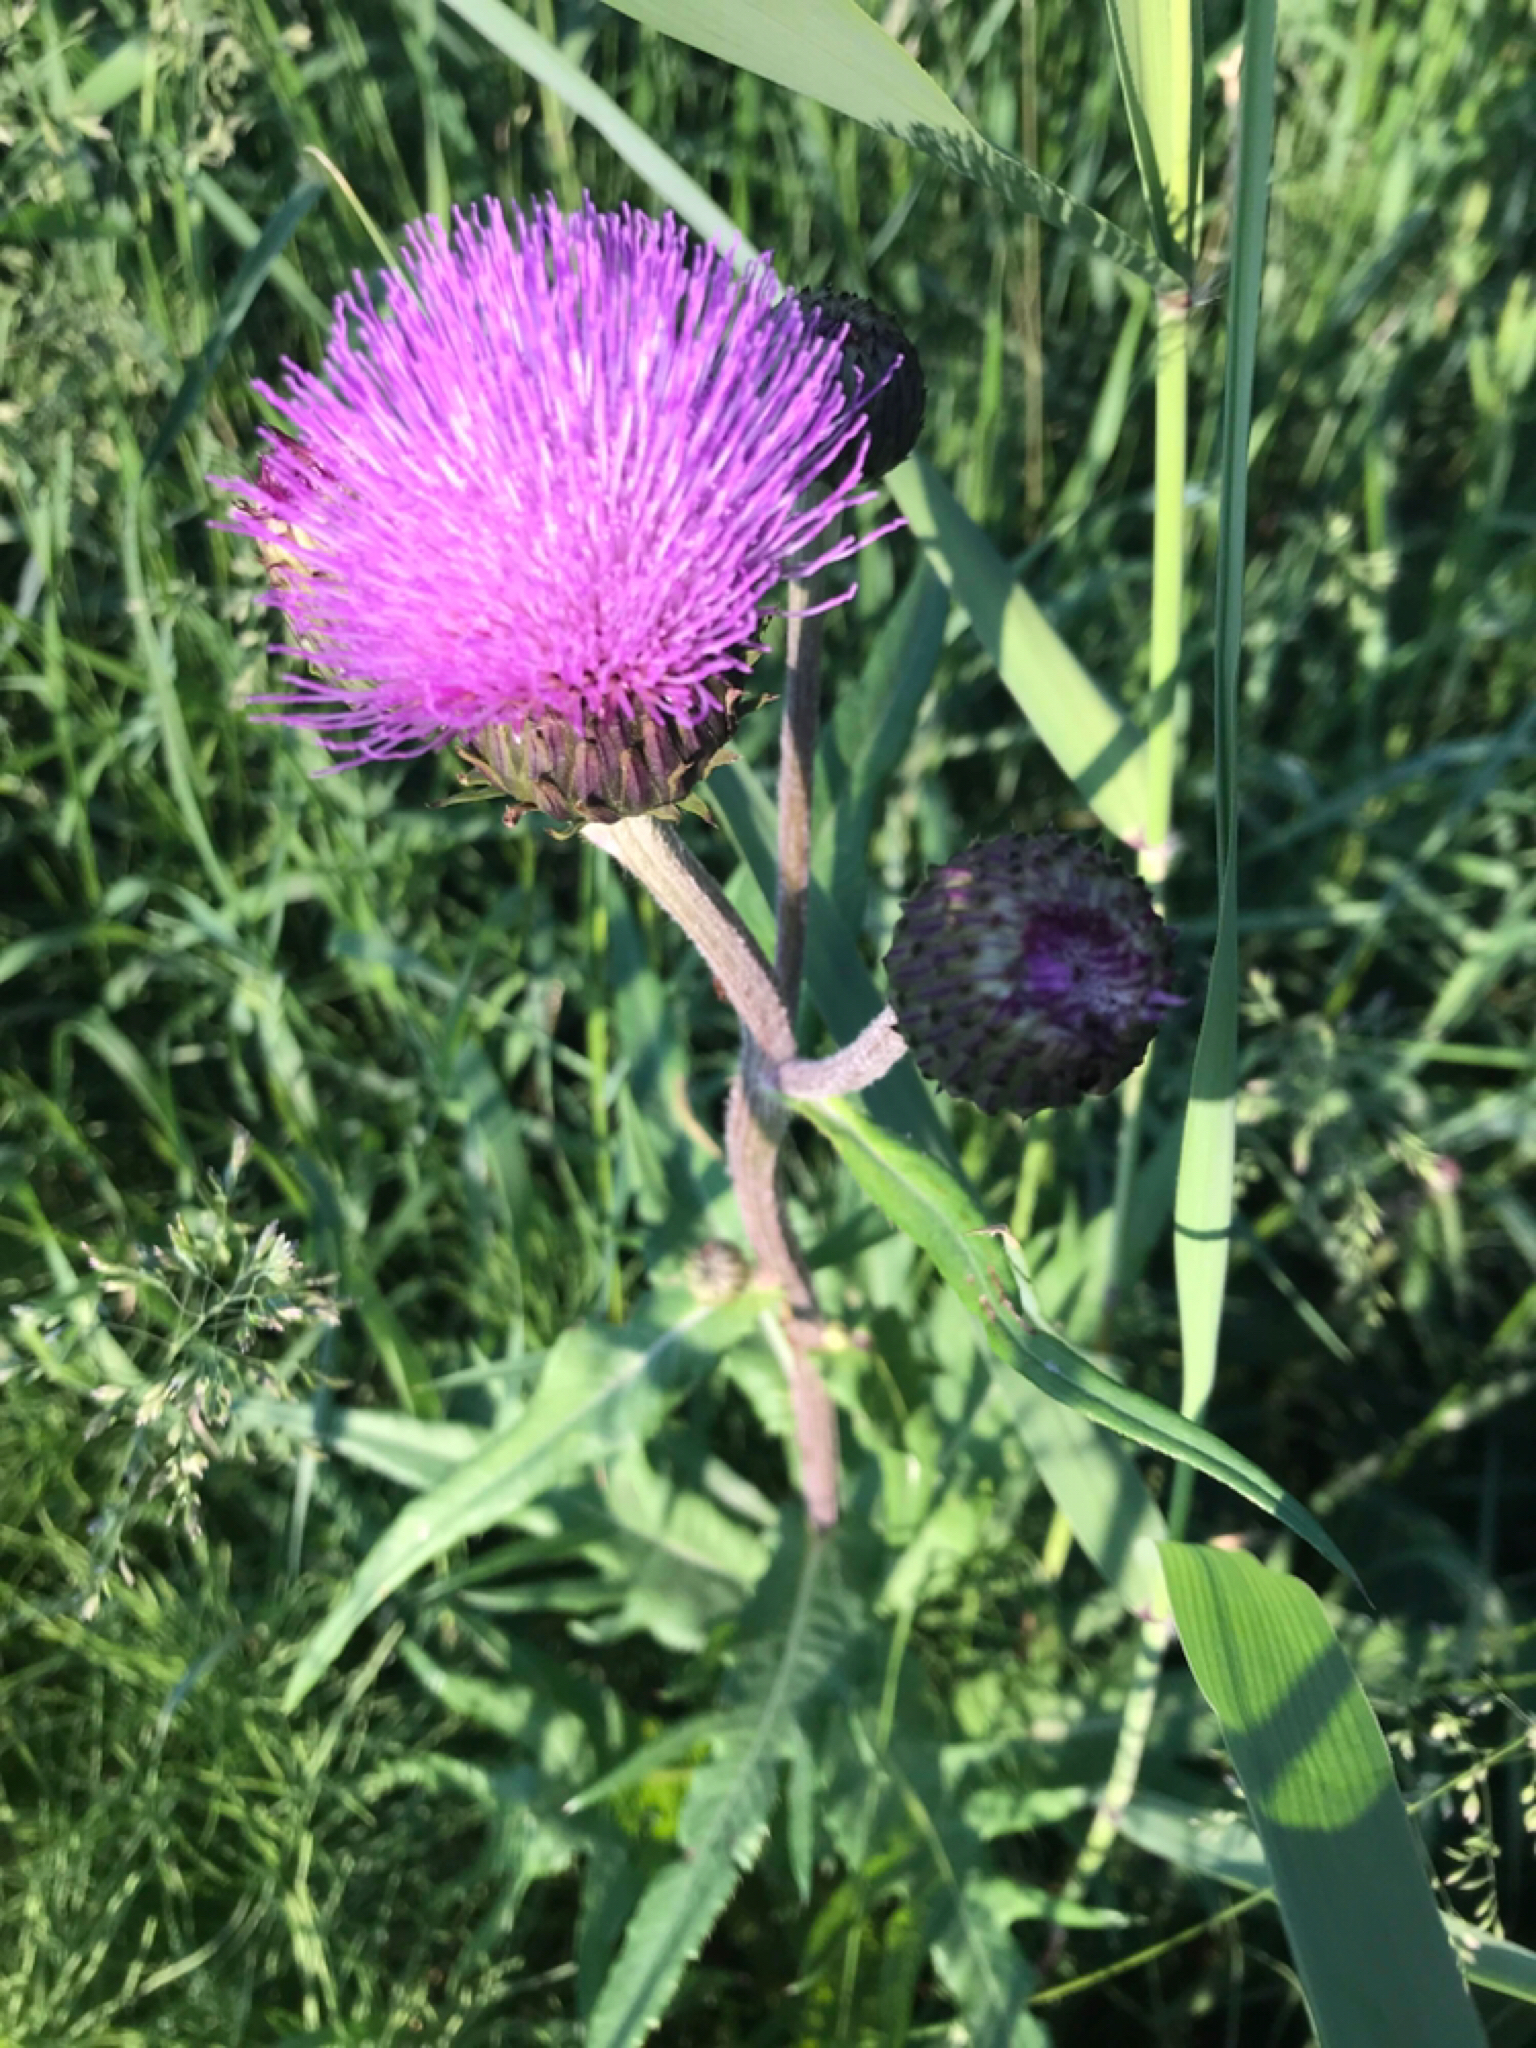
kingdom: Plantae
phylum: Tracheophyta
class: Magnoliopsida
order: Asterales
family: Asteraceae
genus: Cirsium
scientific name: Cirsium heterophyllum
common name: Melancholy thistle
